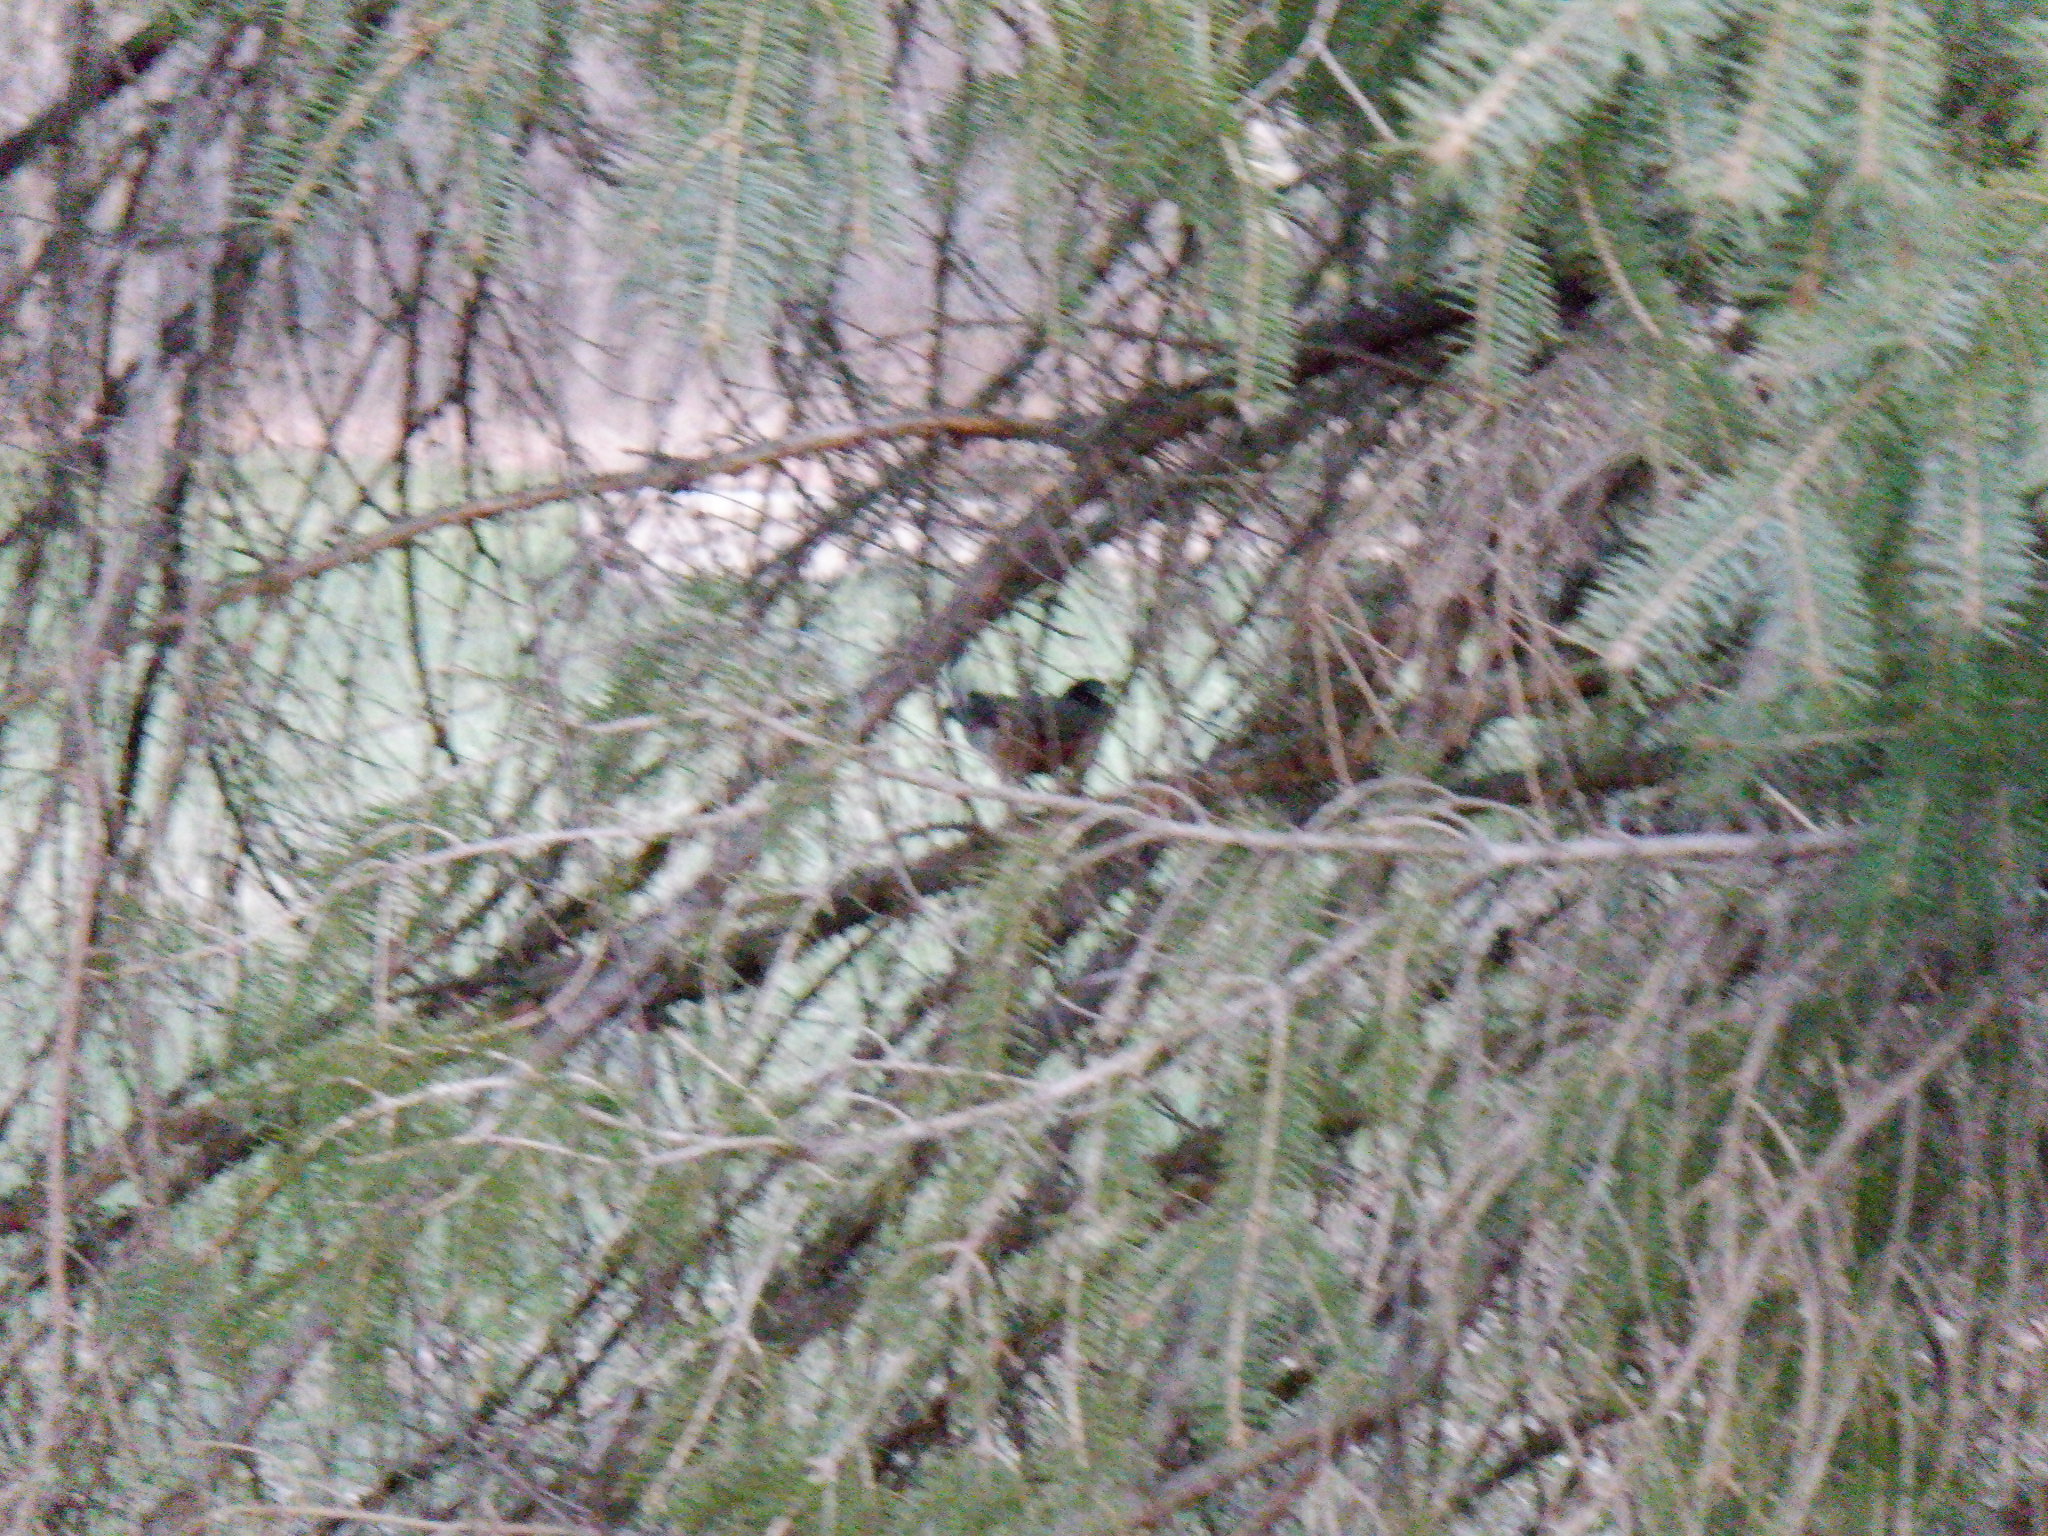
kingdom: Animalia
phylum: Chordata
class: Aves
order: Passeriformes
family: Turdidae
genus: Turdus
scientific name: Turdus migratorius
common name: American robin
